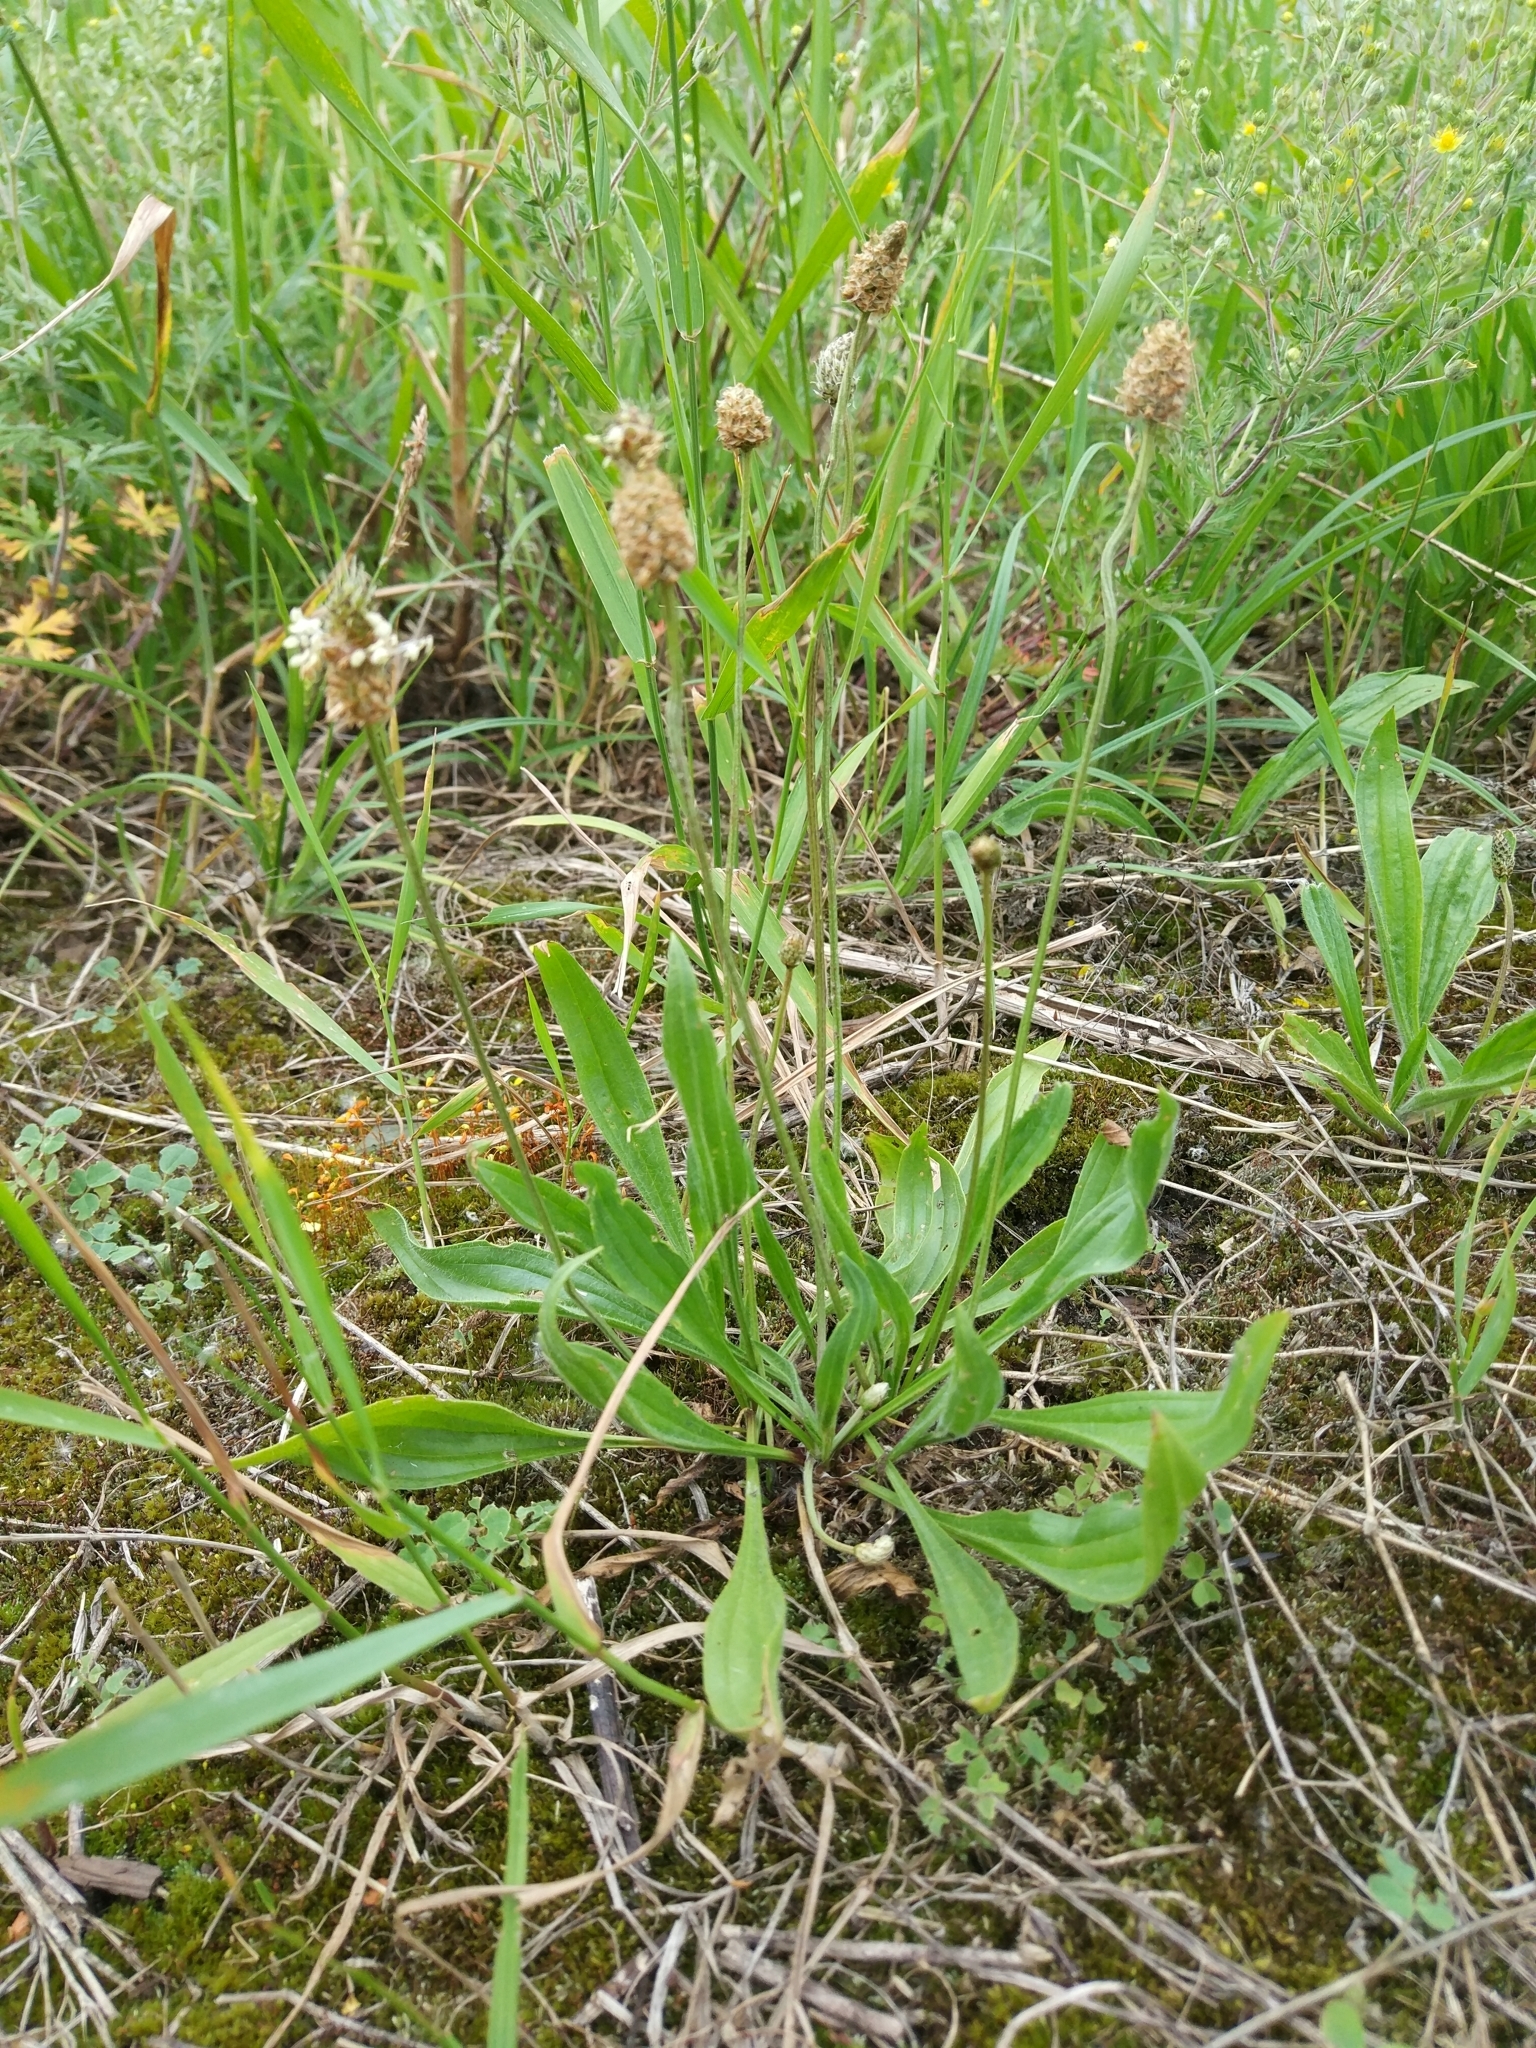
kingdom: Plantae
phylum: Tracheophyta
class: Magnoliopsida
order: Lamiales
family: Plantaginaceae
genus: Plantago
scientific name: Plantago lanceolata
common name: Ribwort plantain
